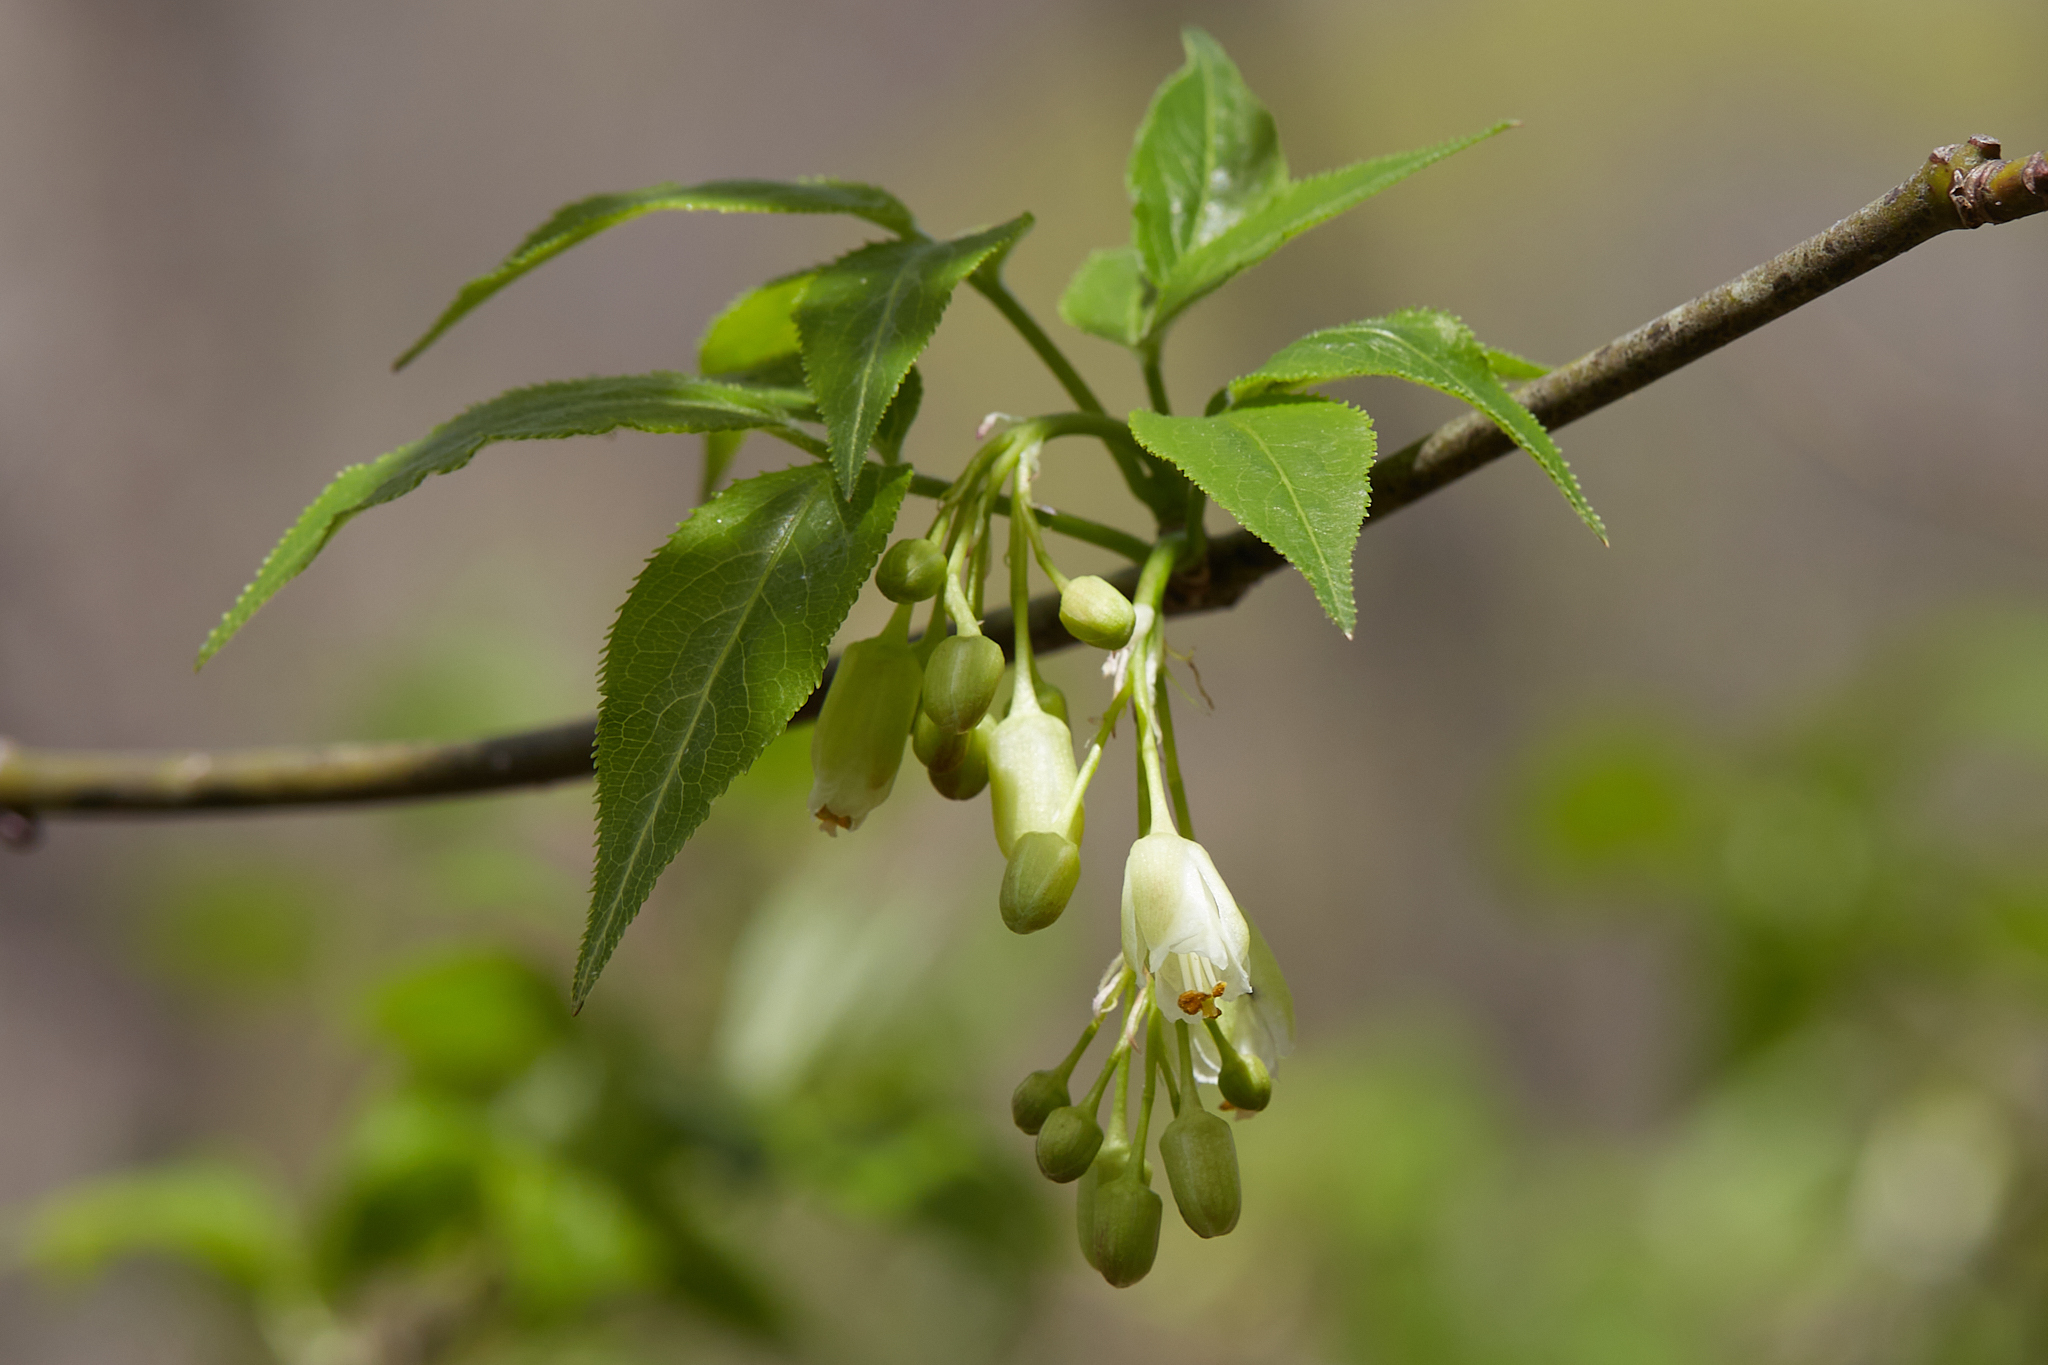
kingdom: Plantae
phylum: Tracheophyta
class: Magnoliopsida
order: Crossosomatales
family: Staphyleaceae
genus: Staphylea
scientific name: Staphylea trifolia
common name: American bladdernut
